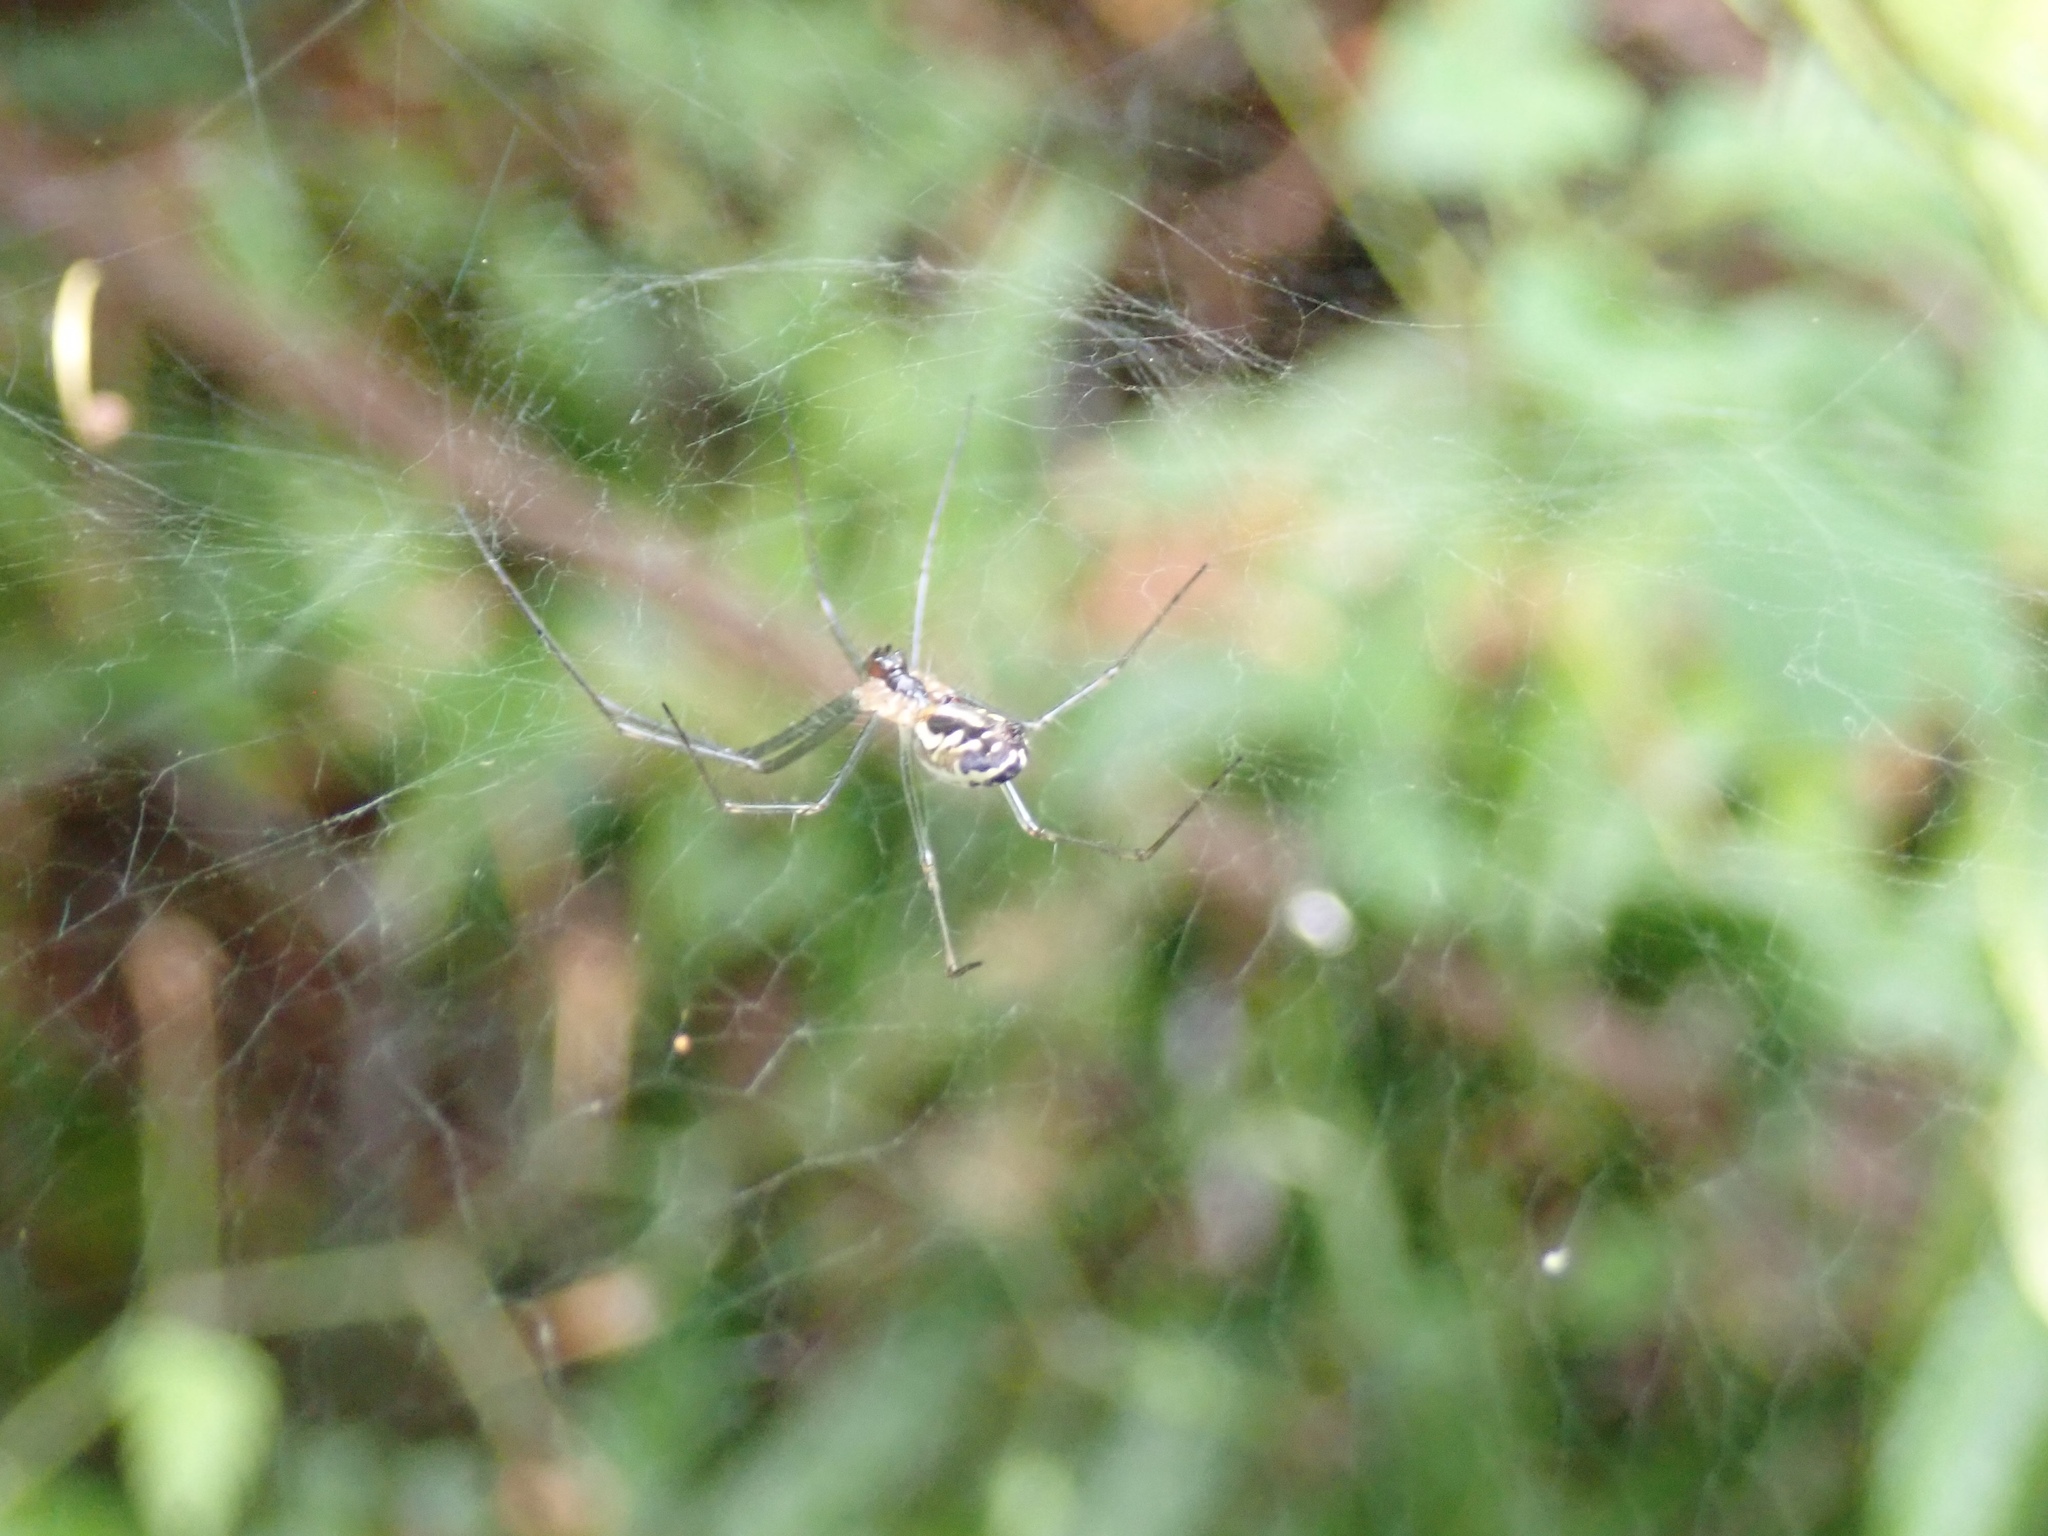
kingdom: Animalia
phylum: Arthropoda
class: Arachnida
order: Araneae
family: Linyphiidae
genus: Neriene
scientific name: Neriene litigiosa
